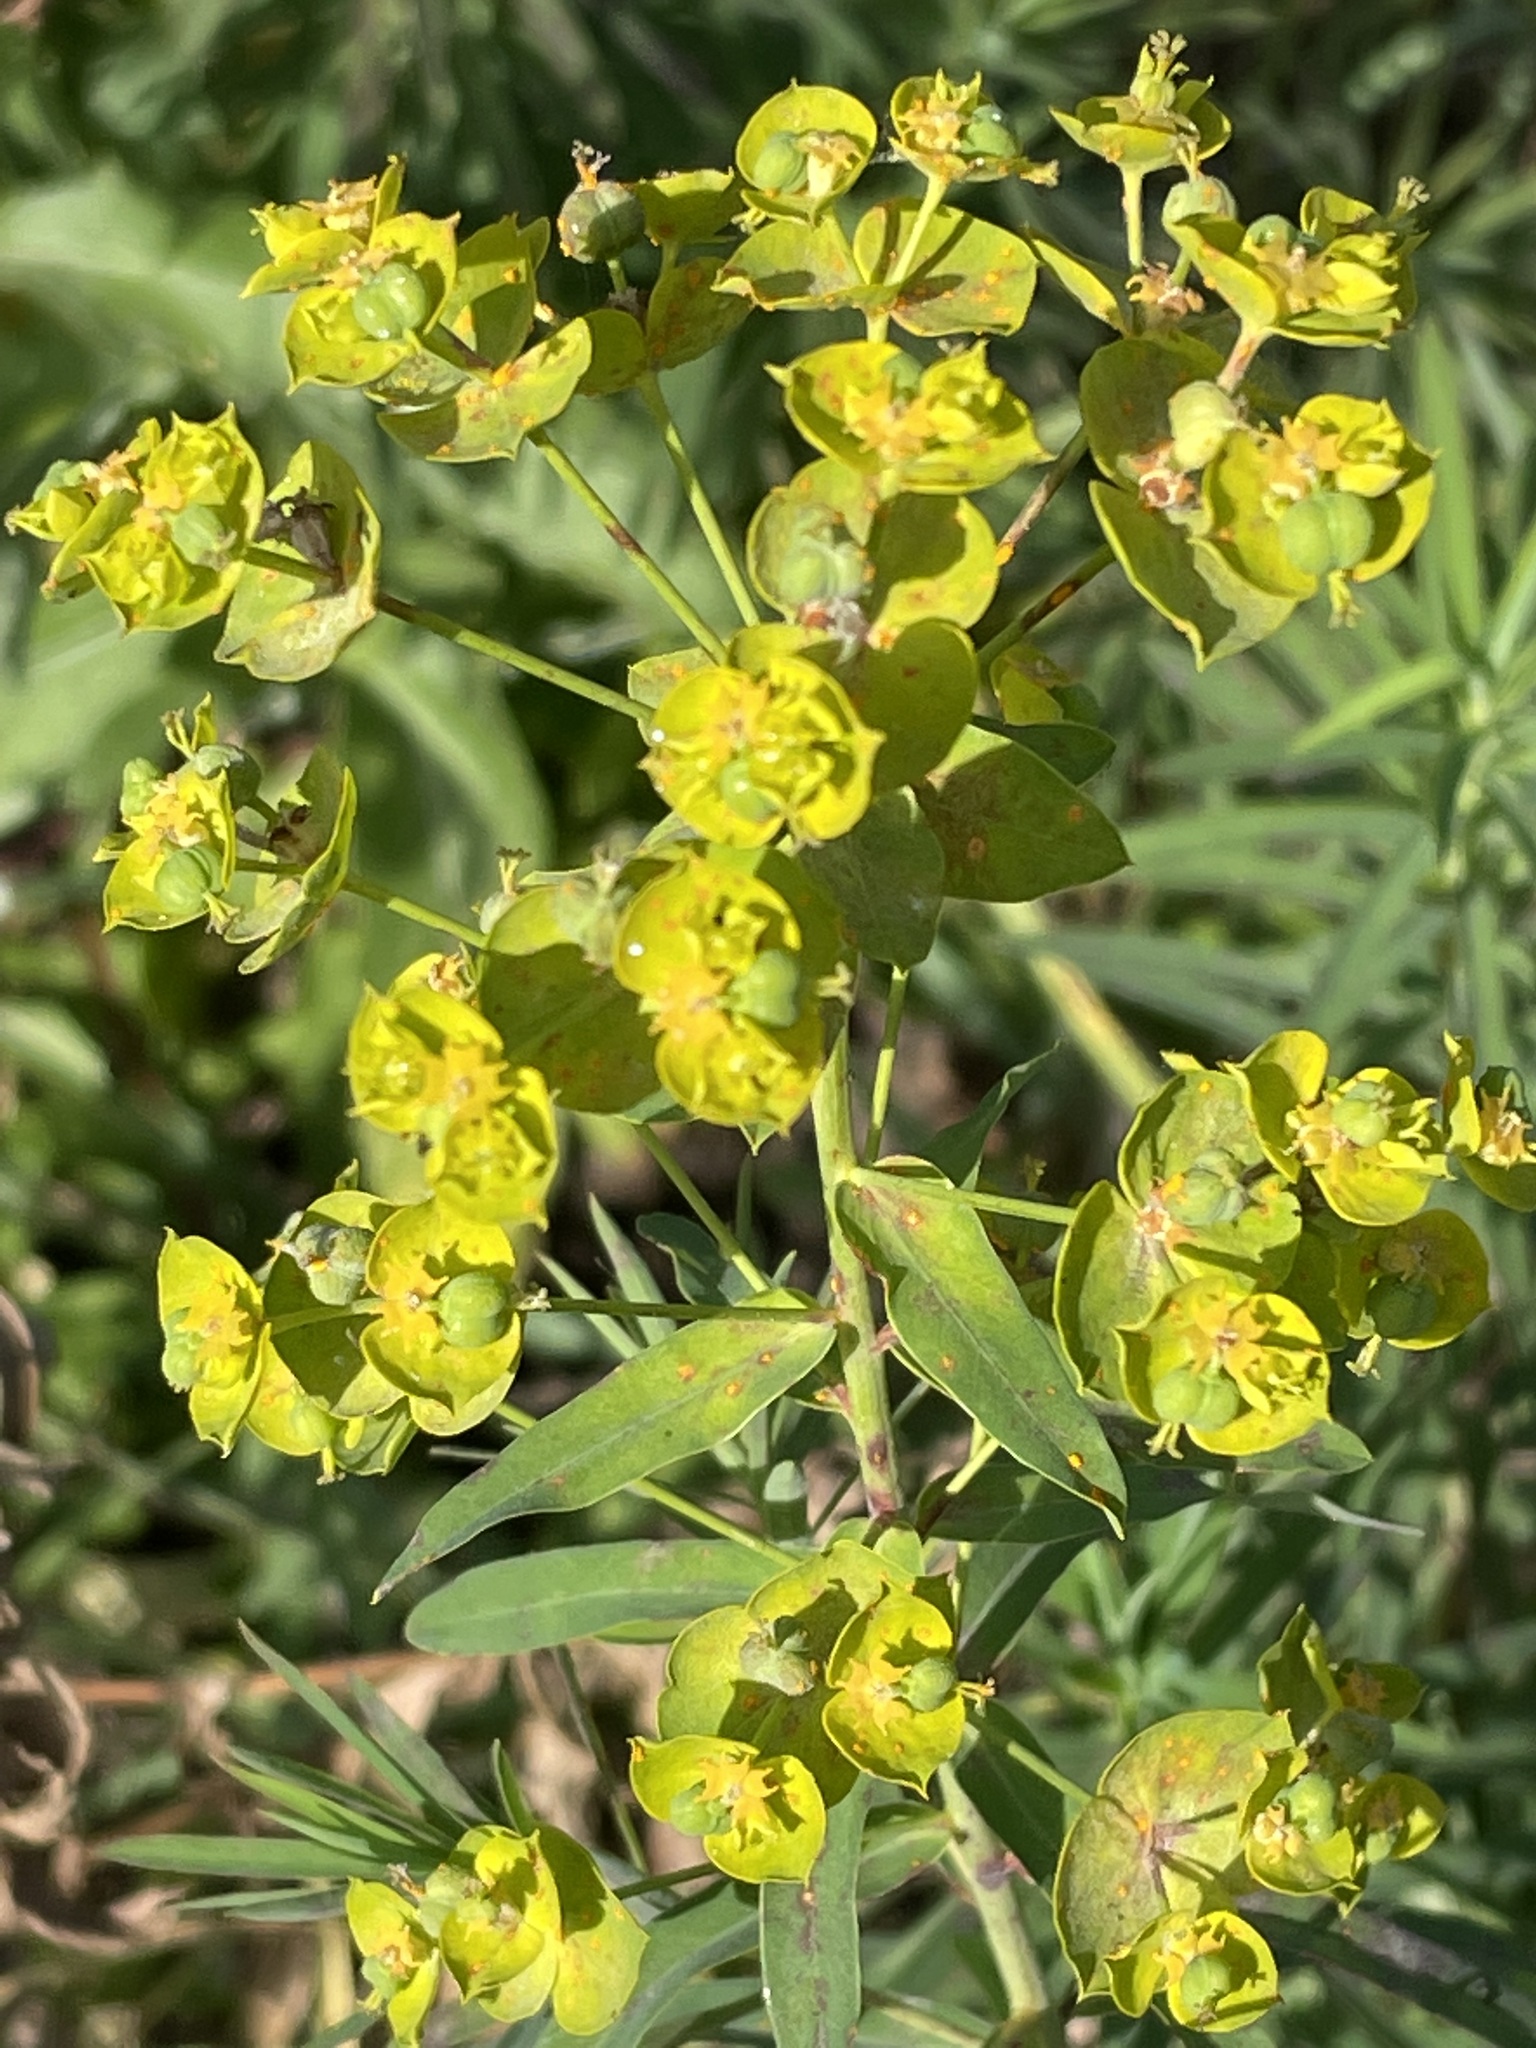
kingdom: Plantae
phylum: Tracheophyta
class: Magnoliopsida
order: Malpighiales
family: Euphorbiaceae
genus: Euphorbia
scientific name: Euphorbia virgata
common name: Leafy spurge
